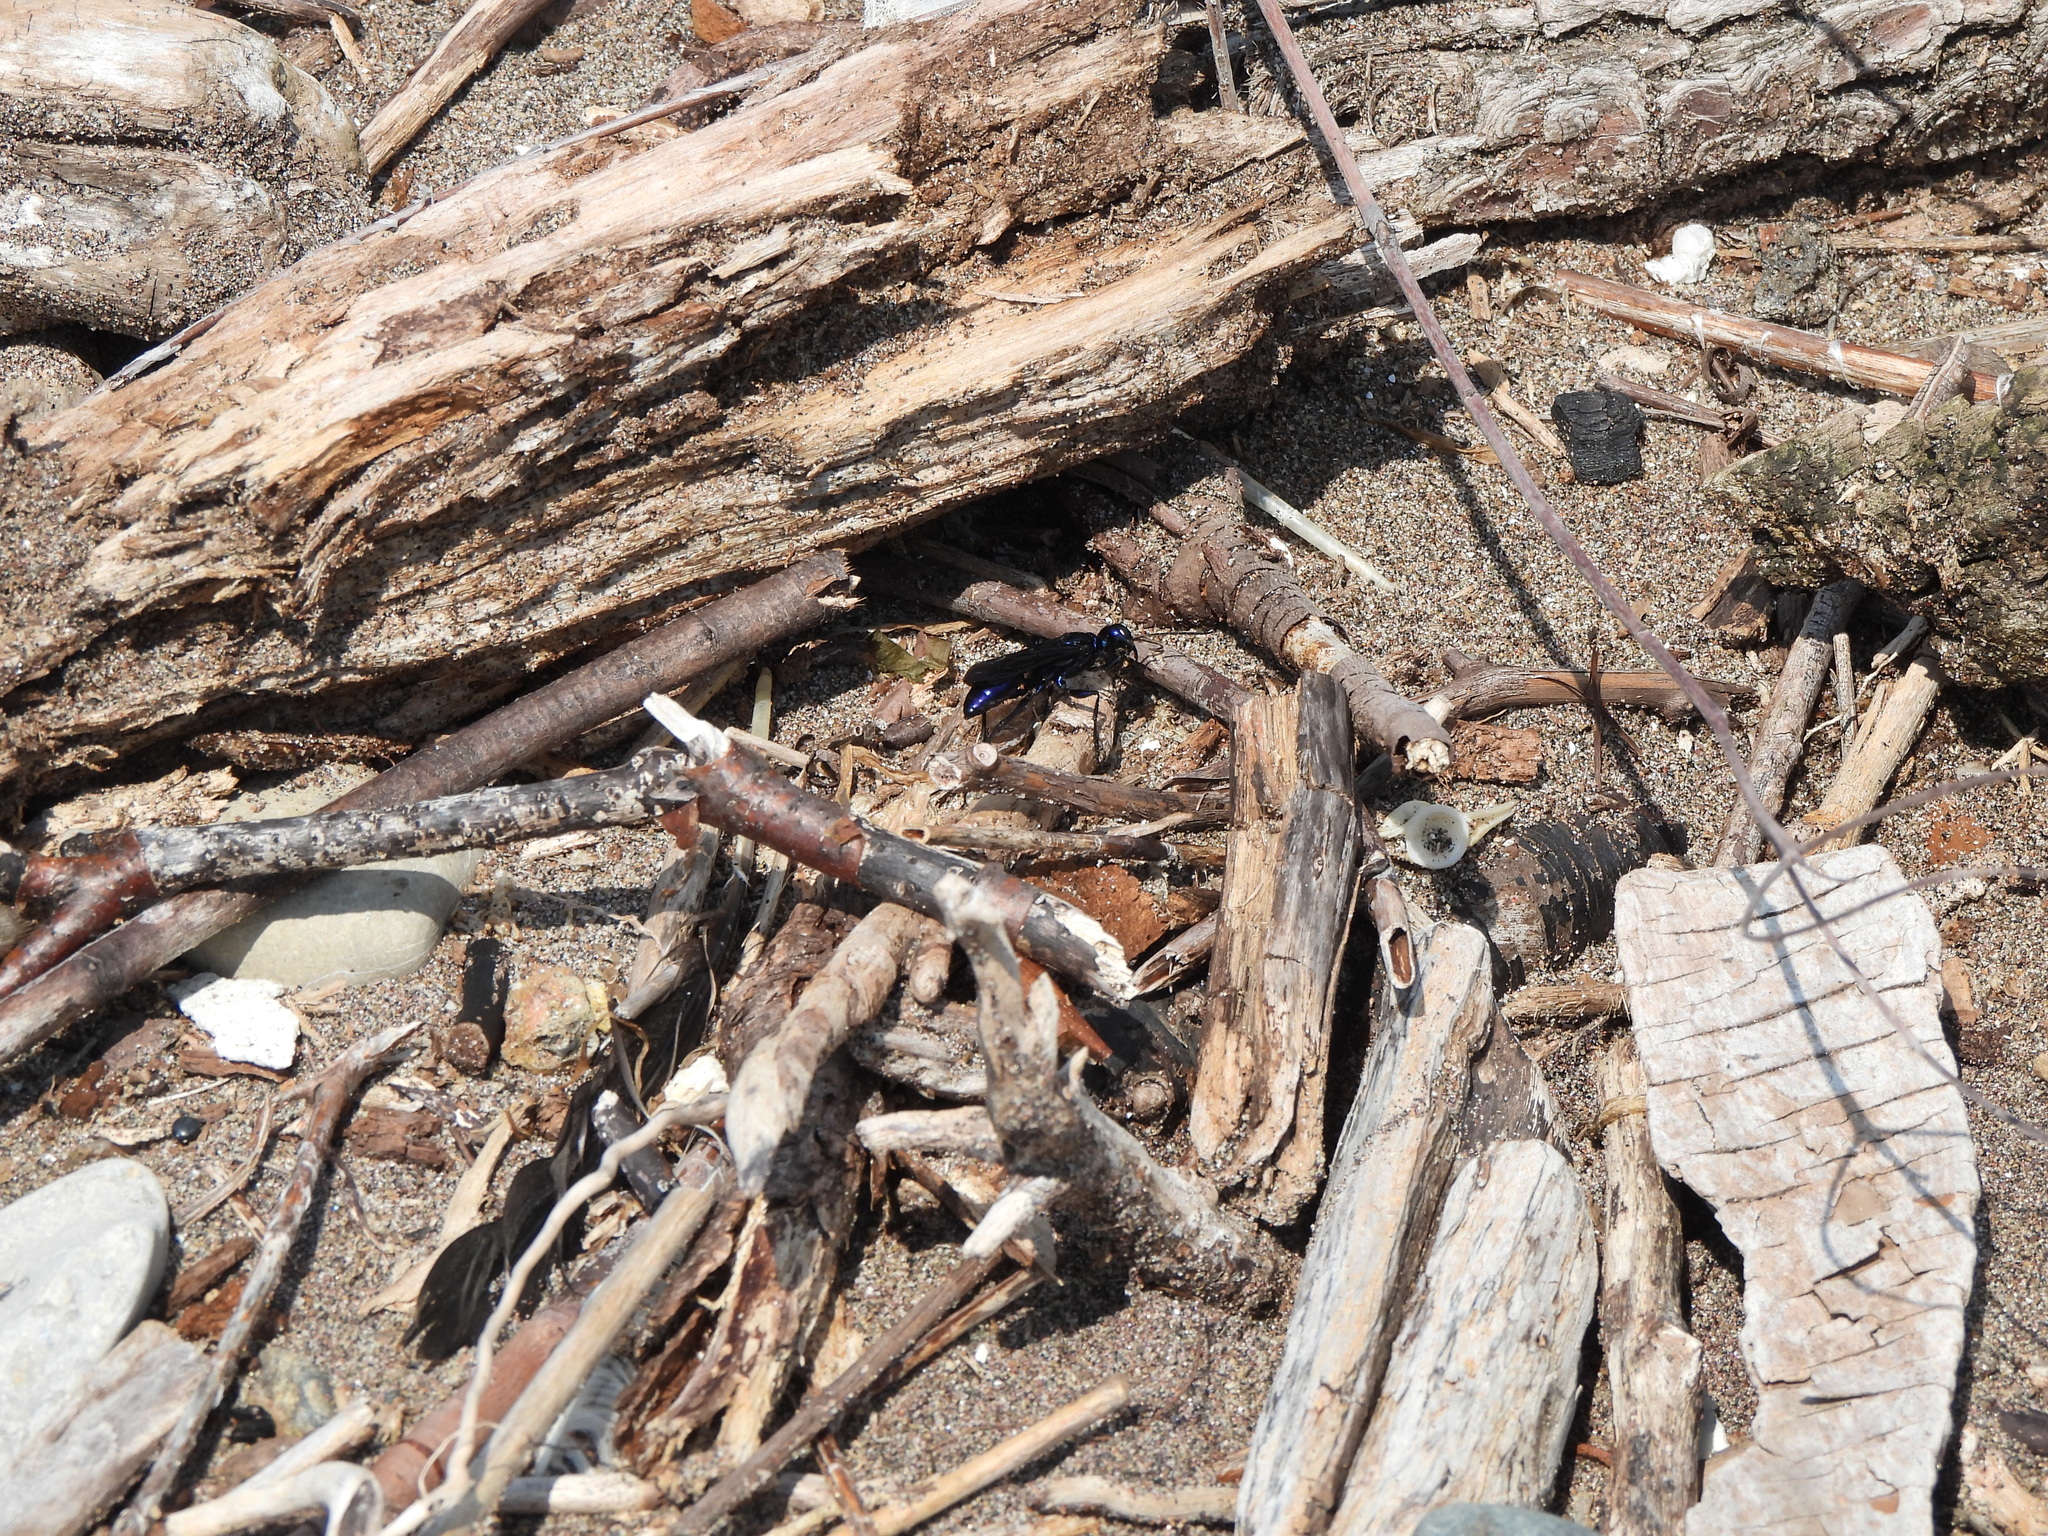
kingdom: Animalia
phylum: Arthropoda
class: Insecta
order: Hymenoptera
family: Sphecidae
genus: Chlorion
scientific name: Chlorion aerarium
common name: Steel-blue cricket hunter
